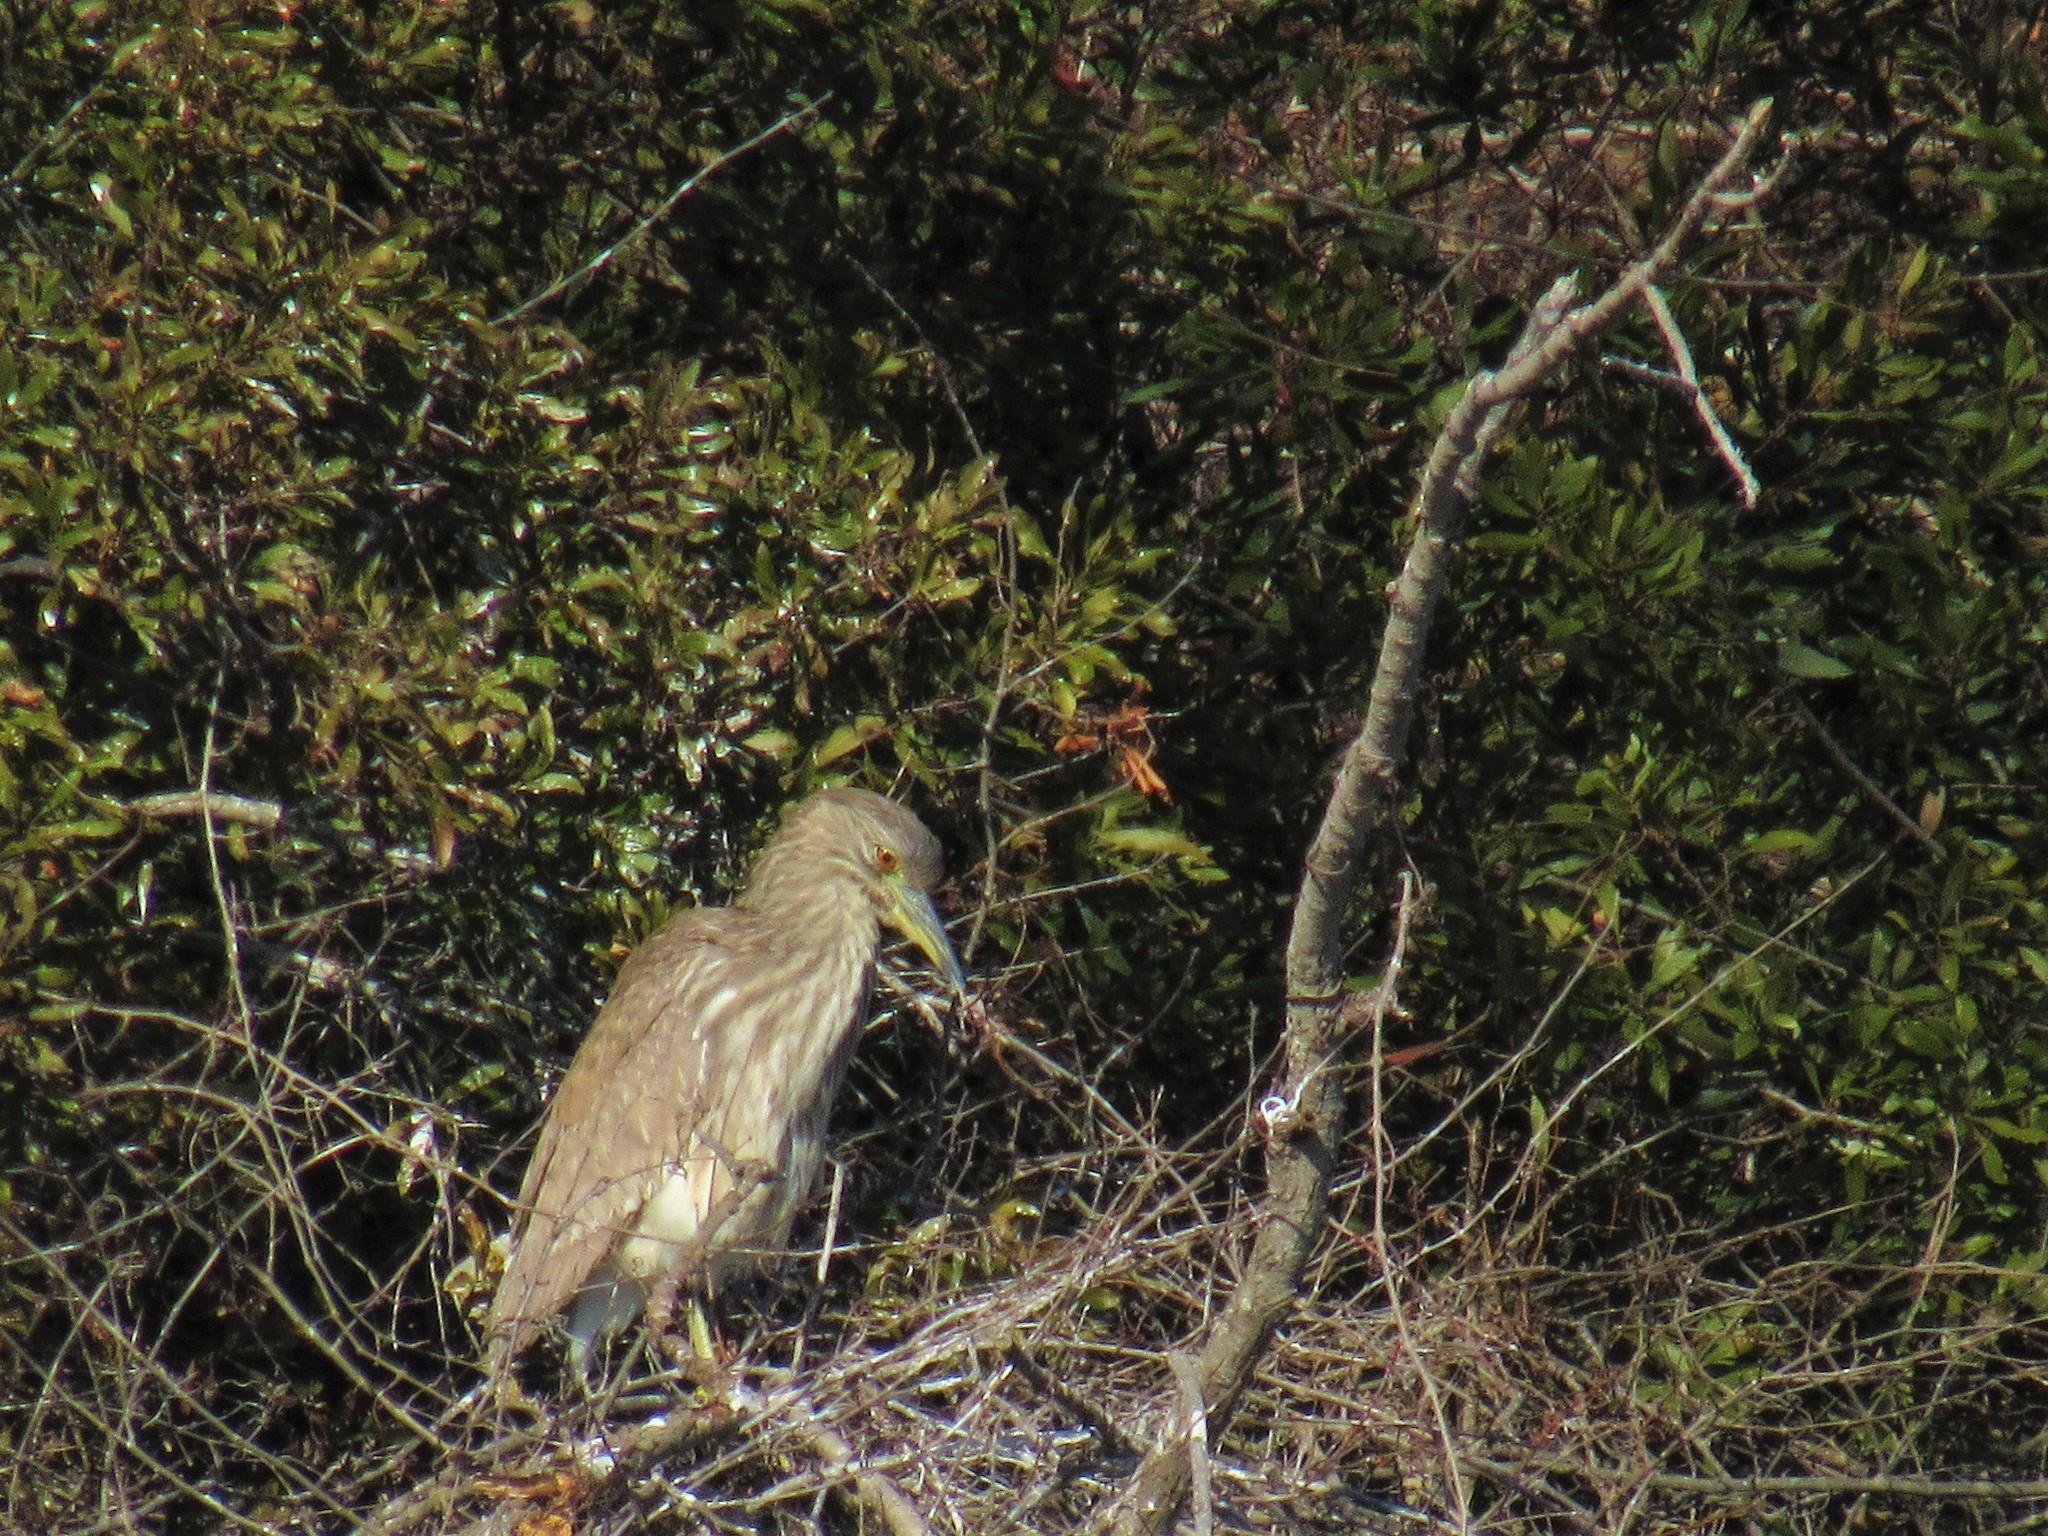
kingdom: Animalia
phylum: Chordata
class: Aves
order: Pelecaniformes
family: Ardeidae
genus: Nycticorax
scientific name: Nycticorax nycticorax
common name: Black-crowned night heron
